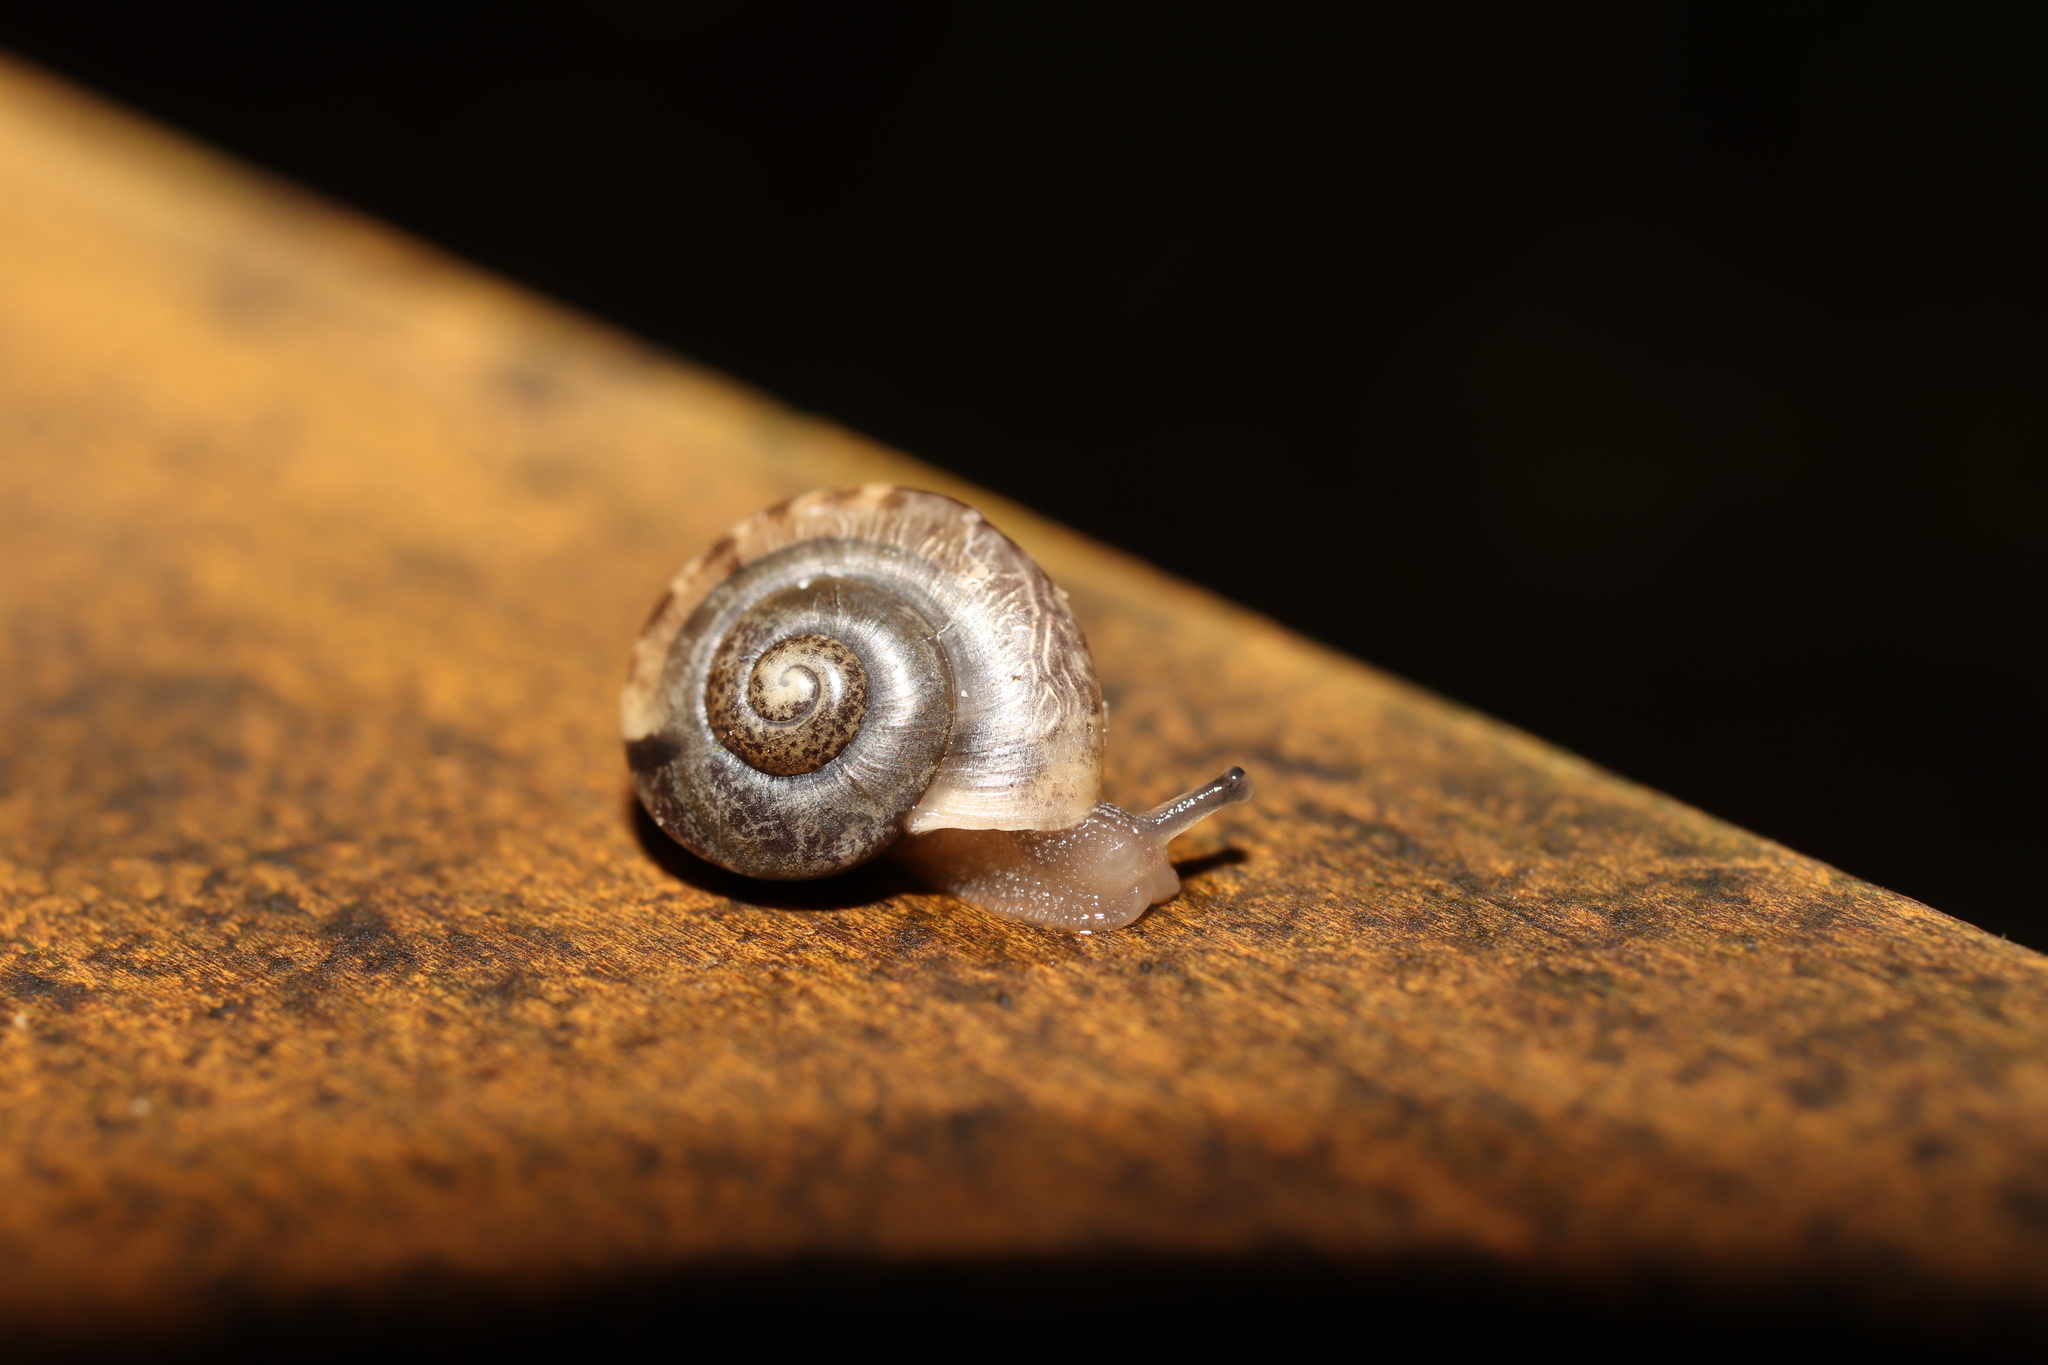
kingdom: Animalia
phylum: Mollusca
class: Gastropoda
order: Stylommatophora
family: Camaenidae
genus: Bradybaena
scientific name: Bradybaena similaris
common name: Asian trampsnail
